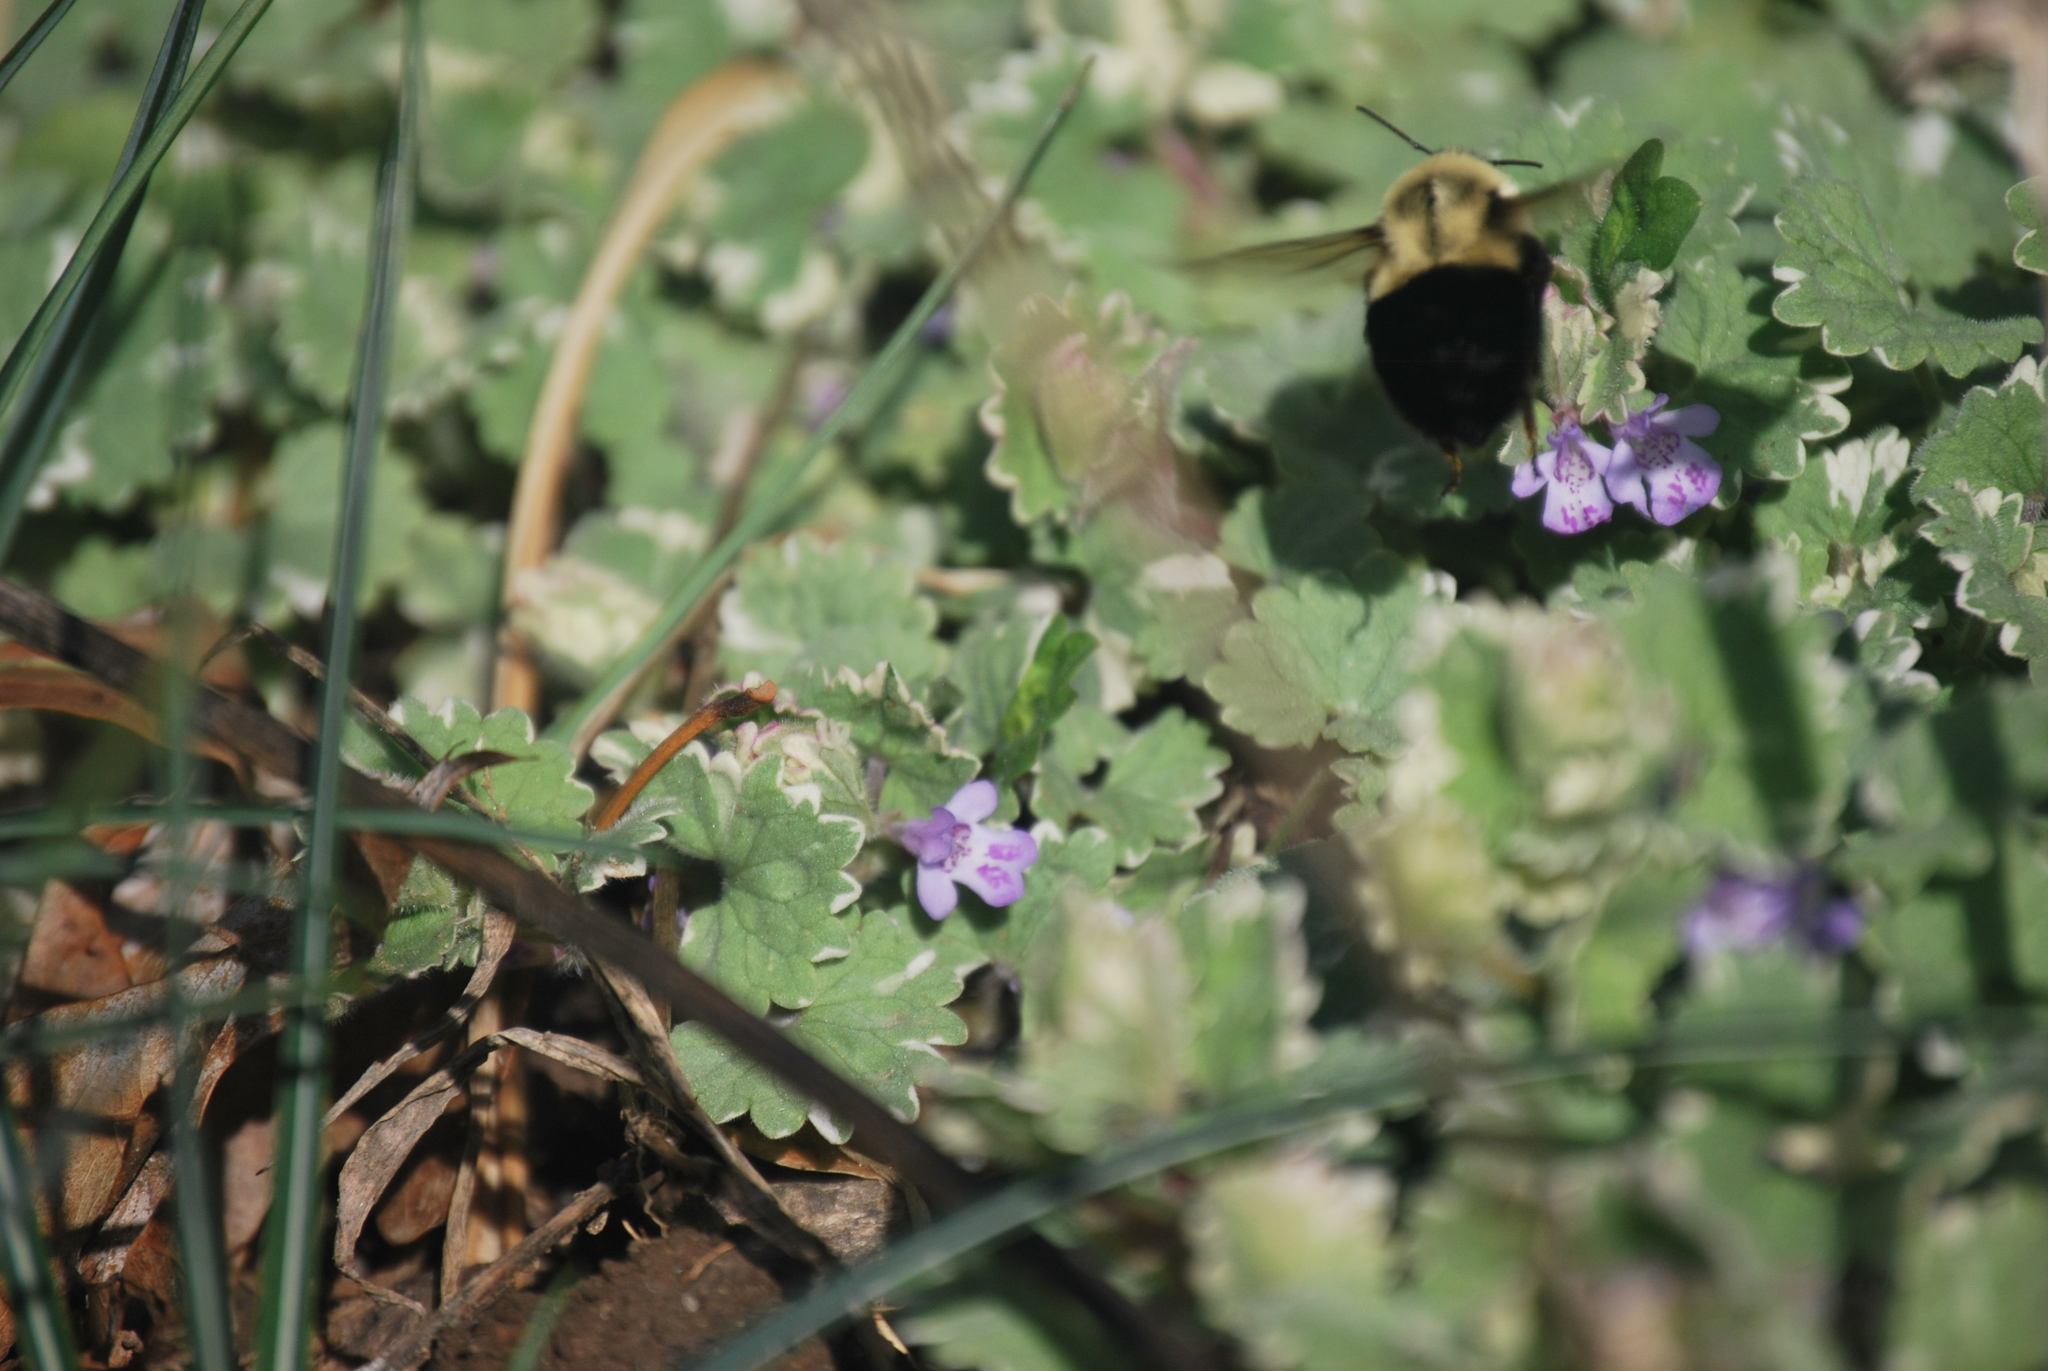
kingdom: Animalia
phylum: Arthropoda
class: Insecta
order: Hymenoptera
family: Apidae
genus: Bombus
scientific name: Bombus impatiens
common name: Common eastern bumble bee
